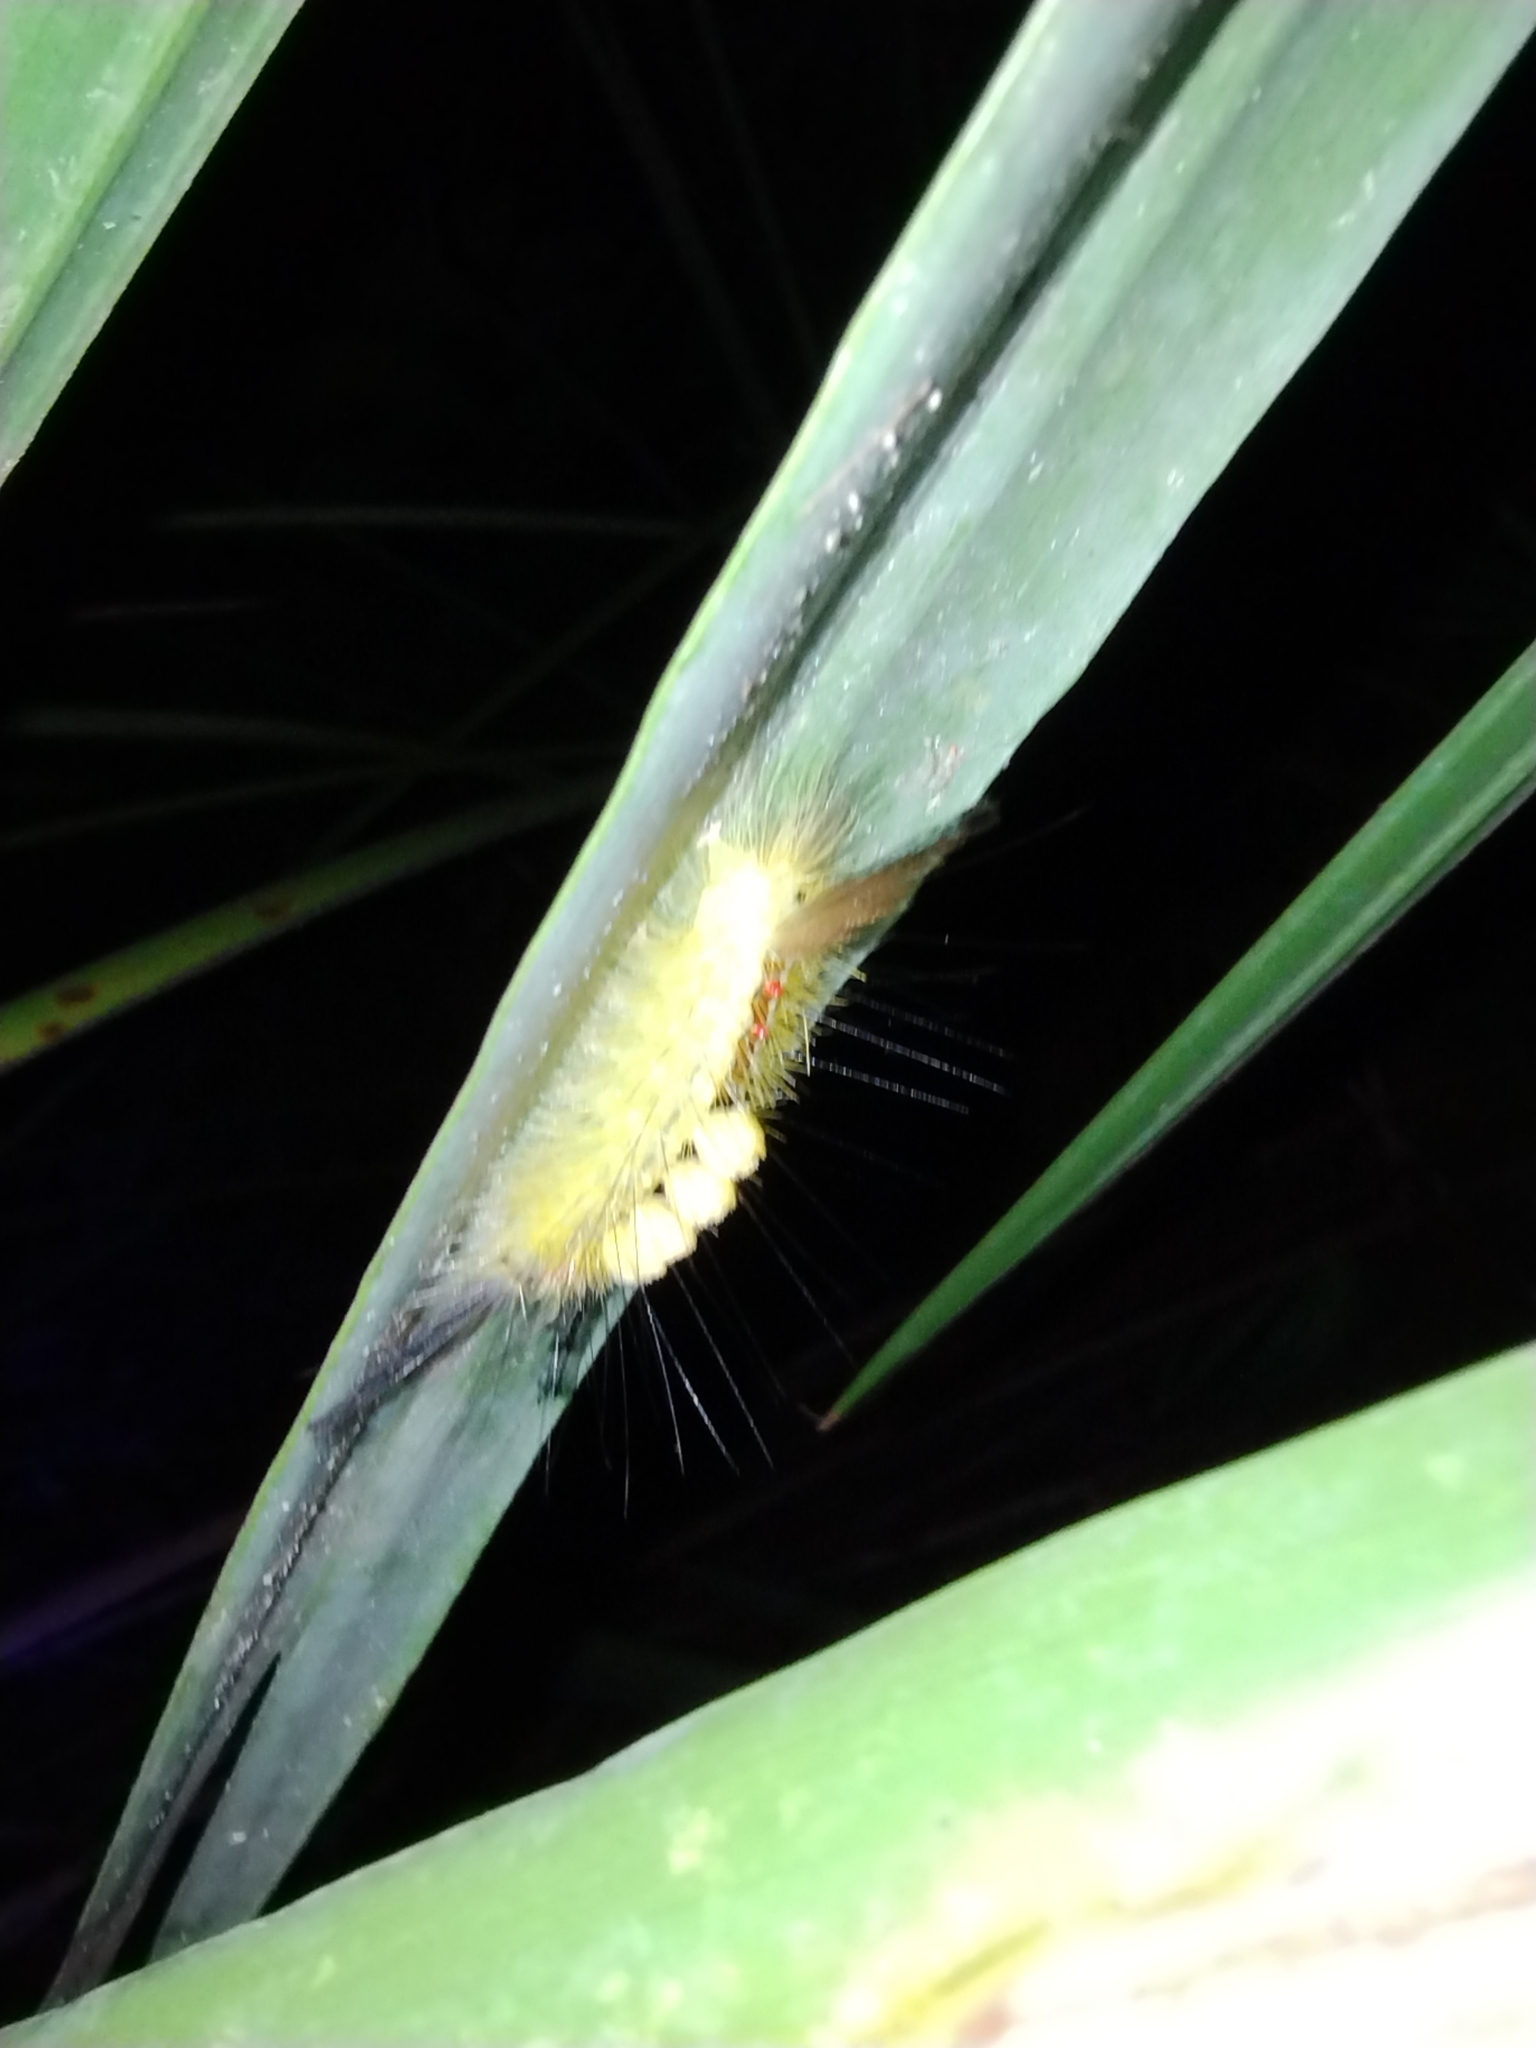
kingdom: Animalia
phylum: Arthropoda
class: Insecta
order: Lepidoptera
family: Erebidae
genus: Orgyia
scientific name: Orgyia leucostigma
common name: White-marked tussock moth
